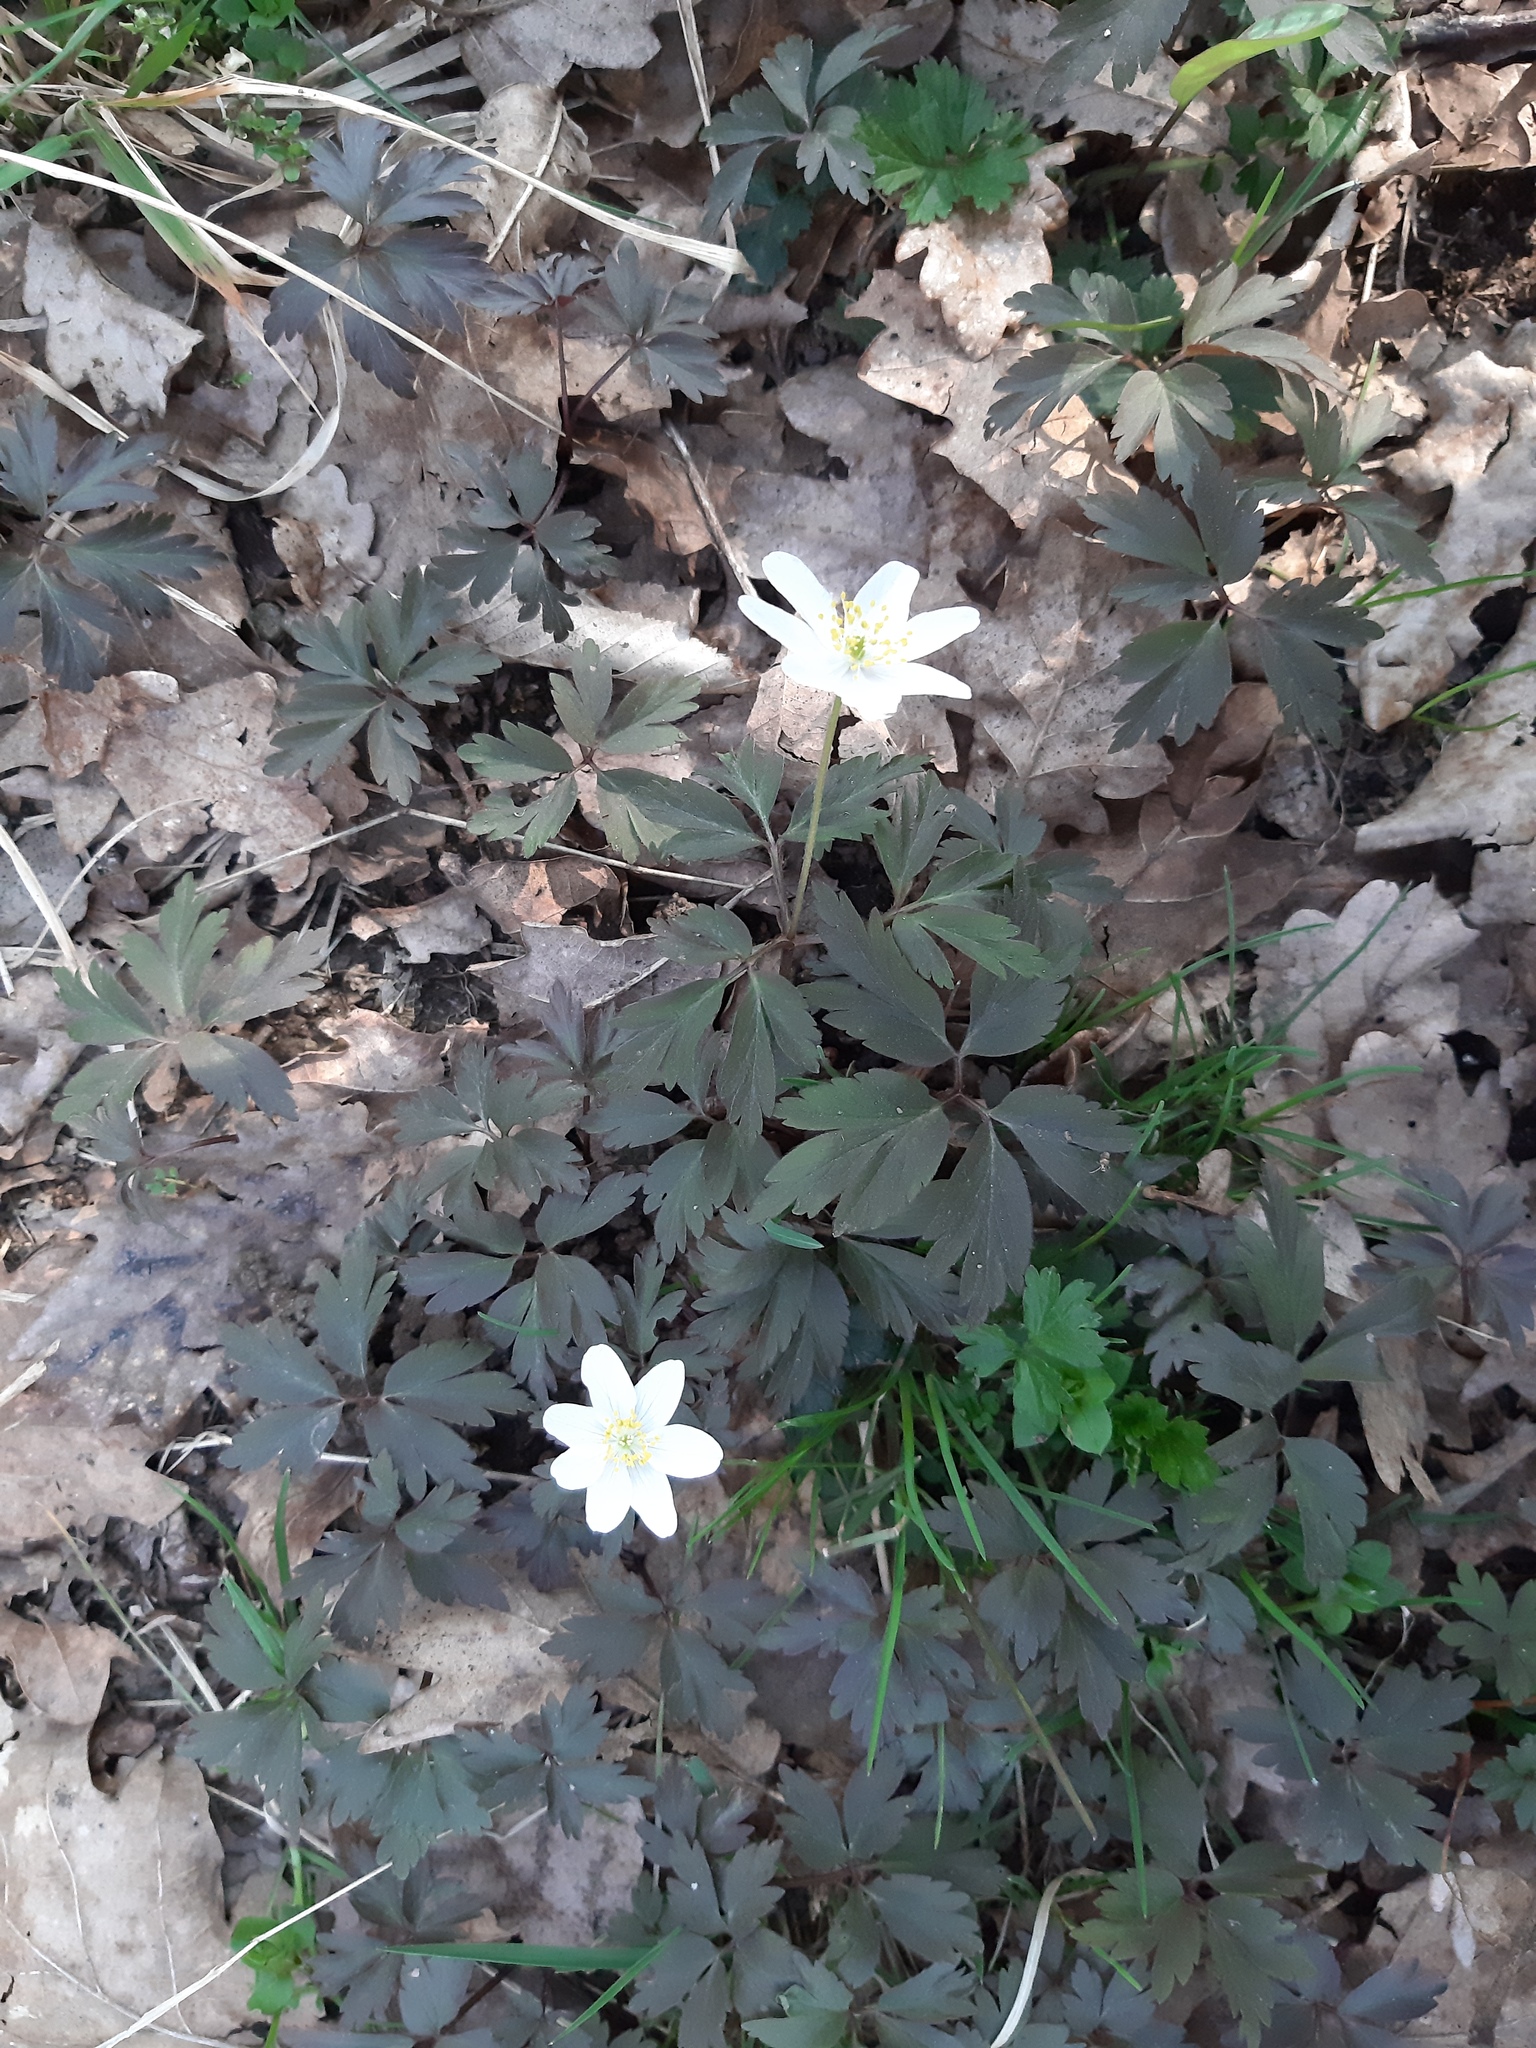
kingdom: Plantae
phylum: Tracheophyta
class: Magnoliopsida
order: Ranunculales
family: Ranunculaceae
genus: Anemone
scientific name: Anemone nemorosa
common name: Wood anemone
